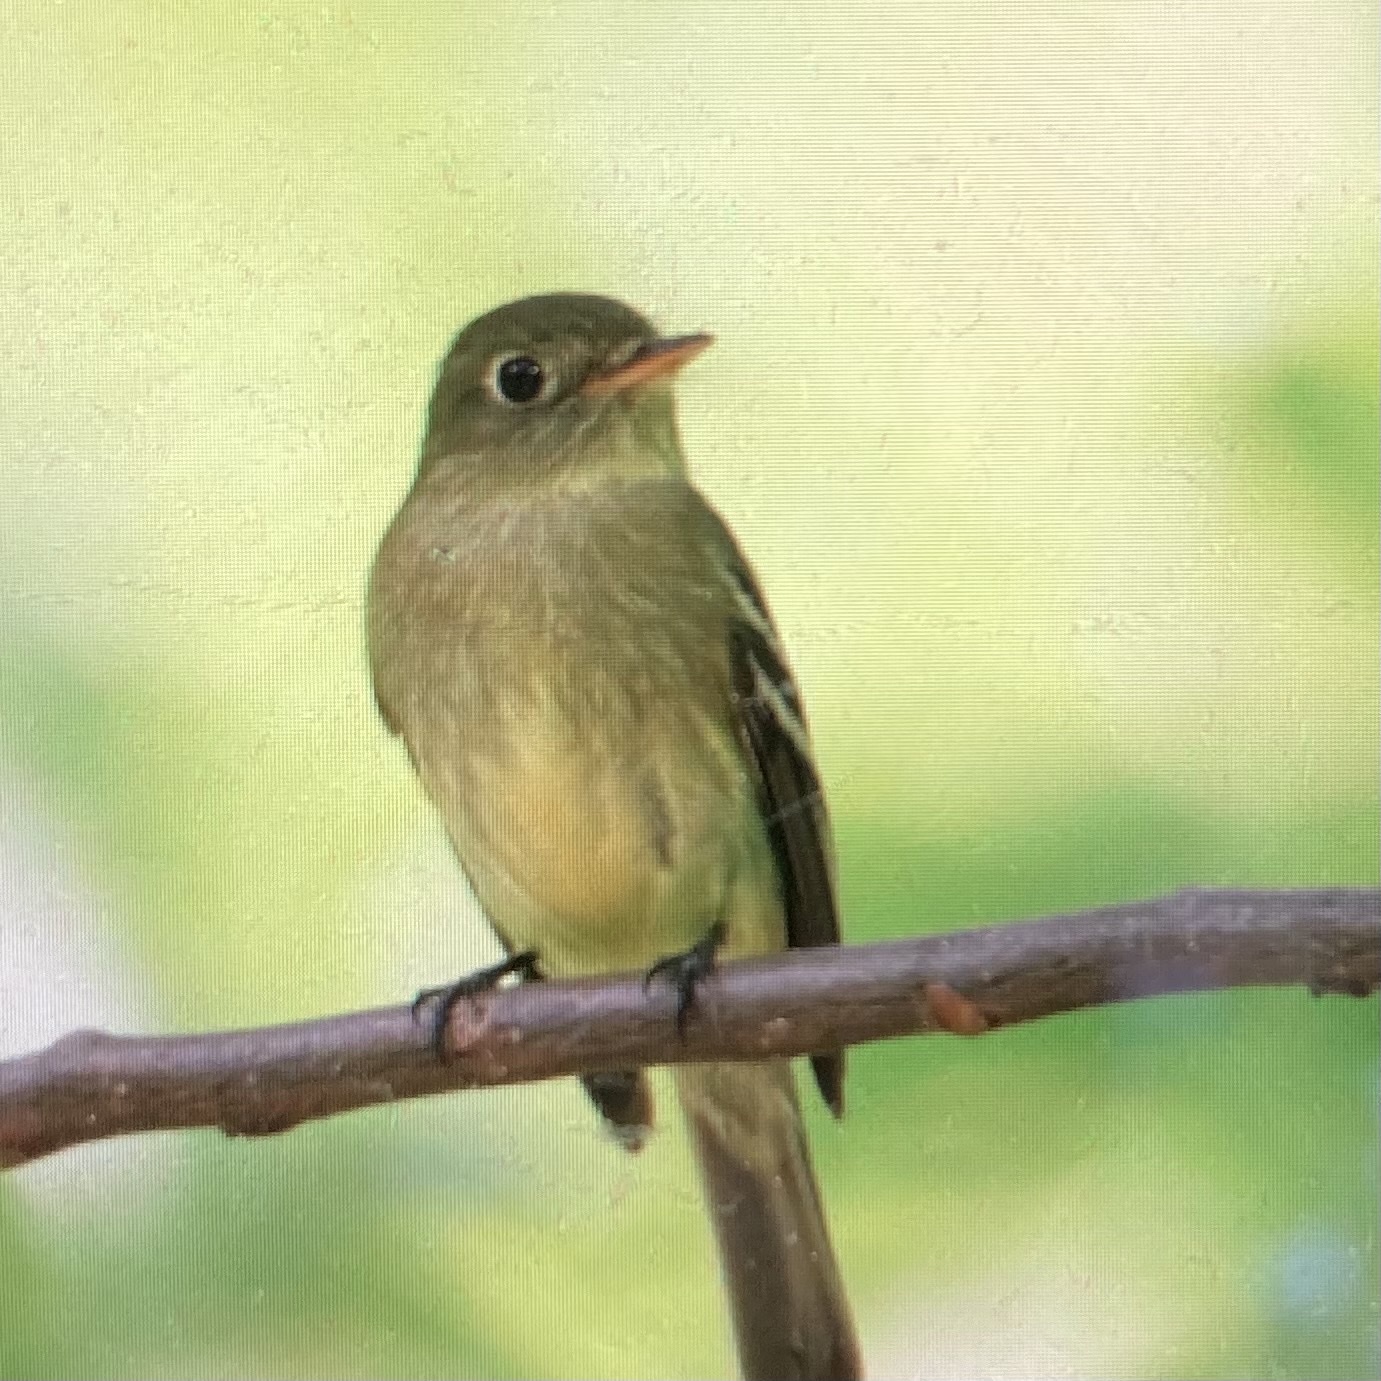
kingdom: Animalia
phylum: Chordata
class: Aves
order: Passeriformes
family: Tyrannidae
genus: Empidonax
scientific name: Empidonax flaviventris
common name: Yellow-bellied flycatcher
